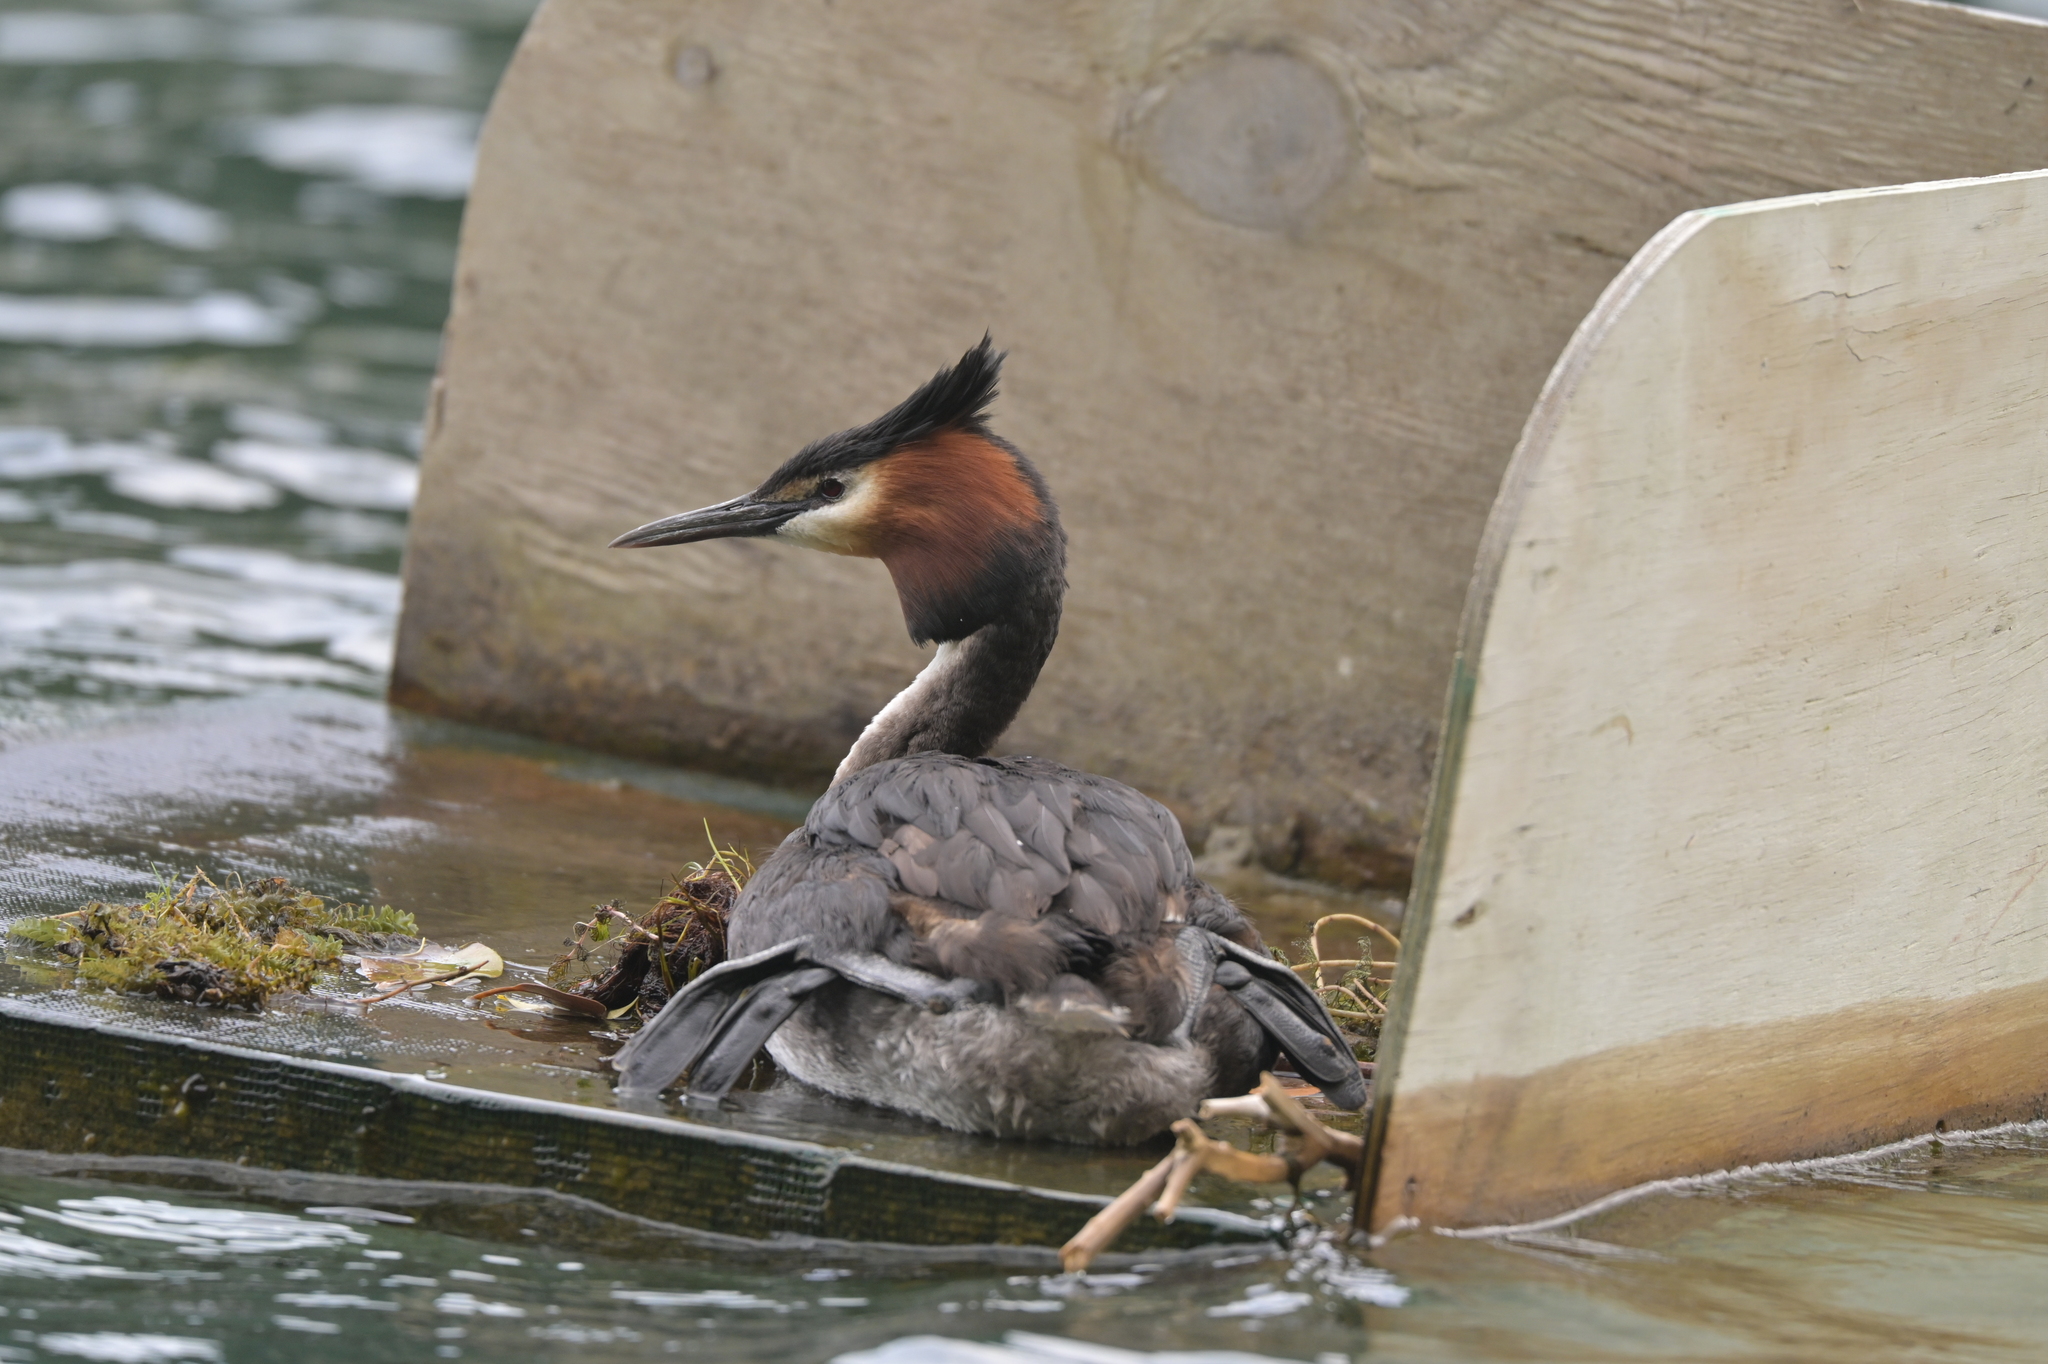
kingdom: Animalia
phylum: Chordata
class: Aves
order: Podicipediformes
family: Podicipedidae
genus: Podiceps
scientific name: Podiceps cristatus
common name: Great crested grebe
